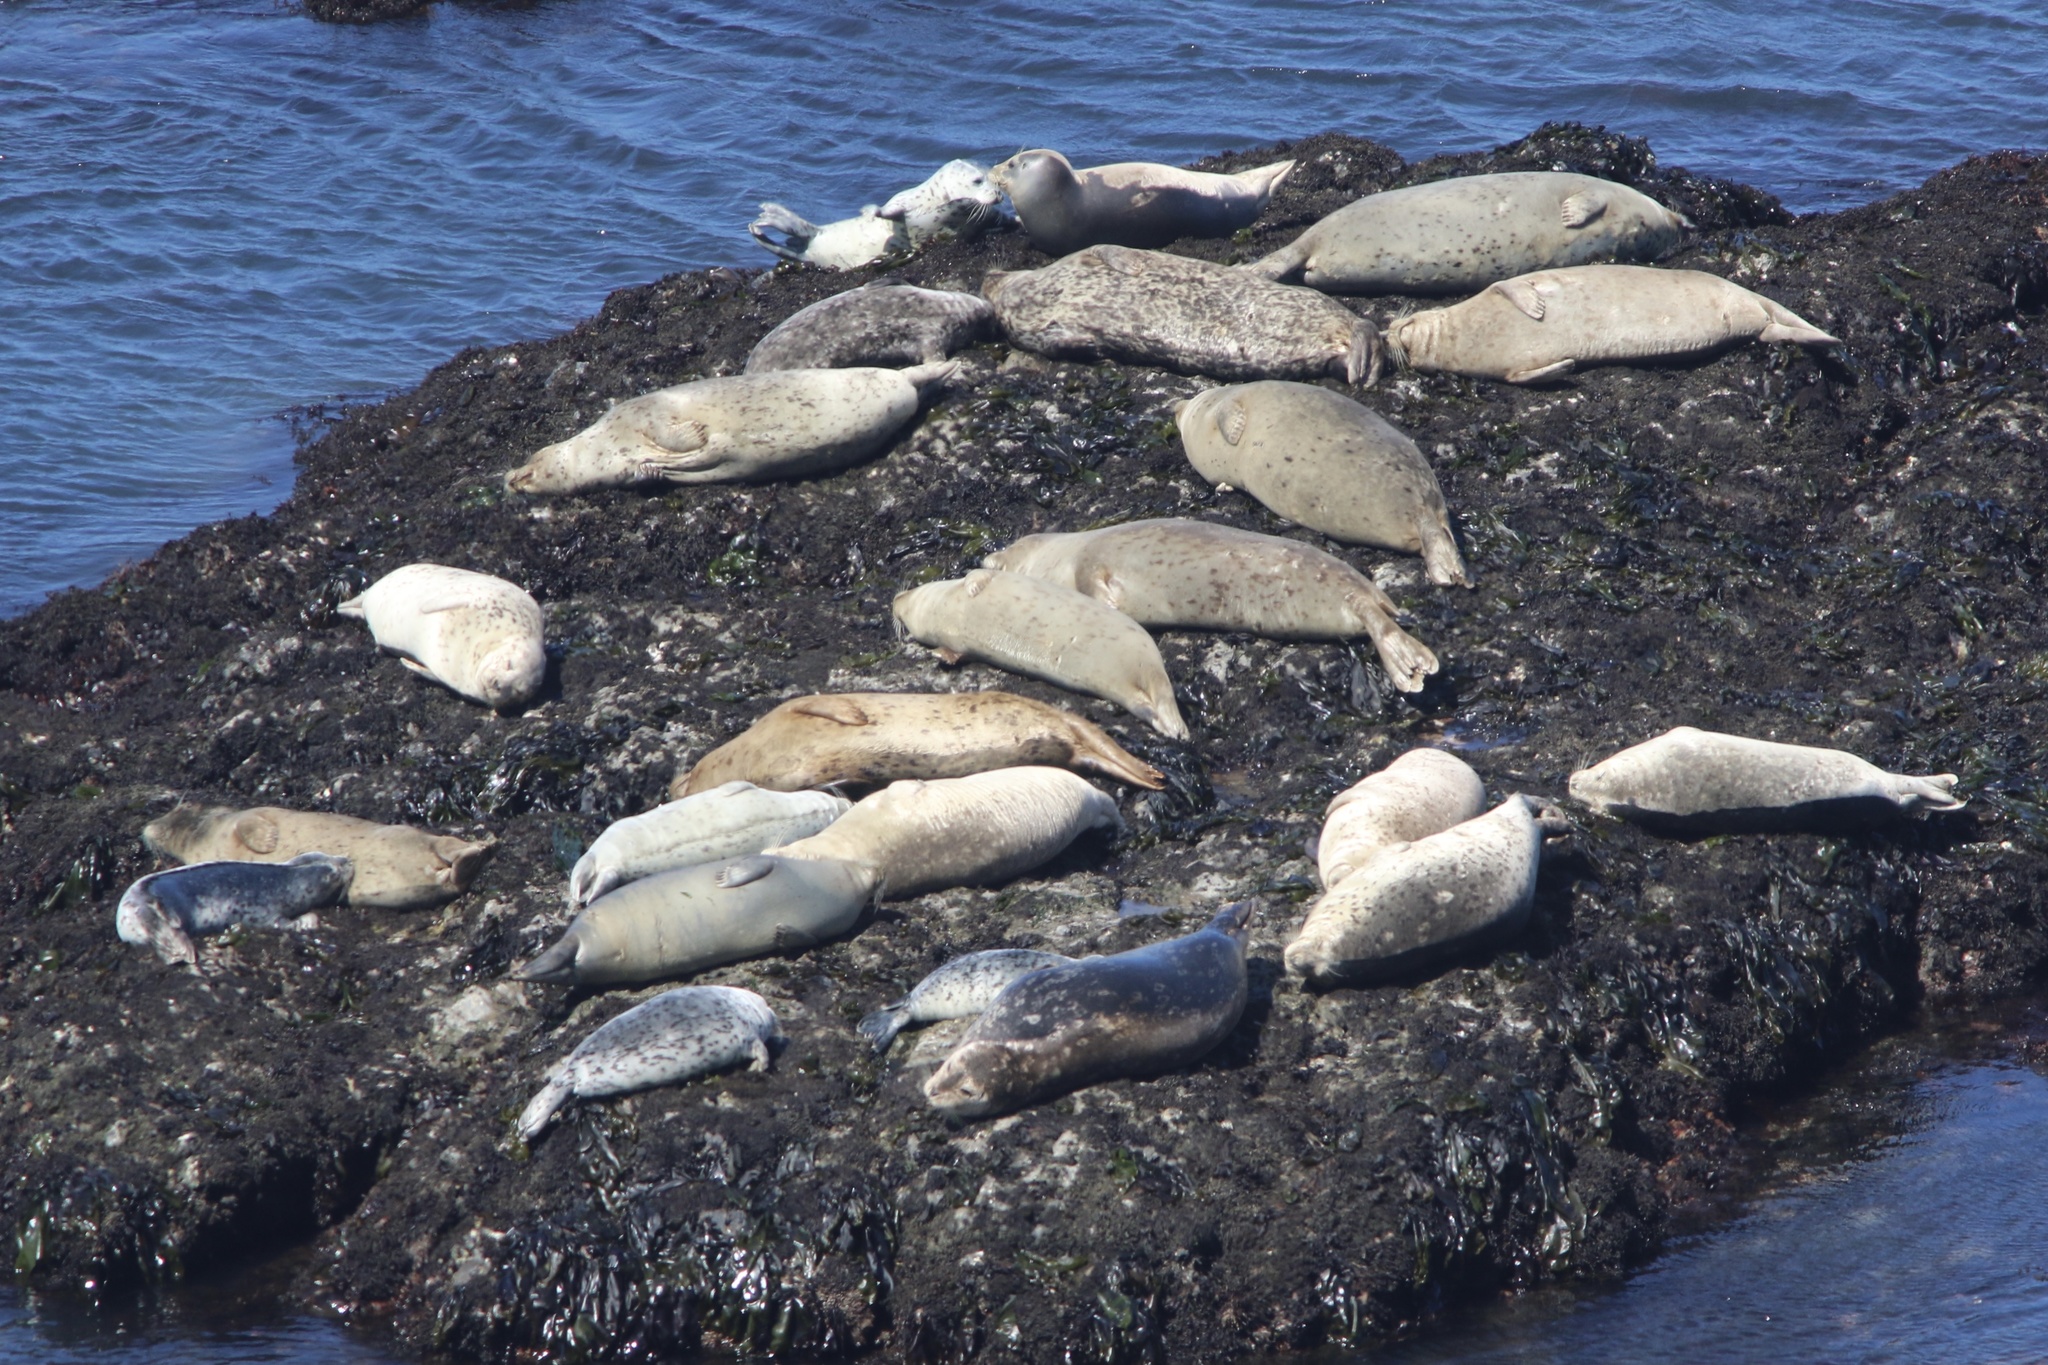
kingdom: Animalia
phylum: Chordata
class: Mammalia
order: Carnivora
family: Phocidae
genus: Phoca
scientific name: Phoca vitulina
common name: Harbor seal
